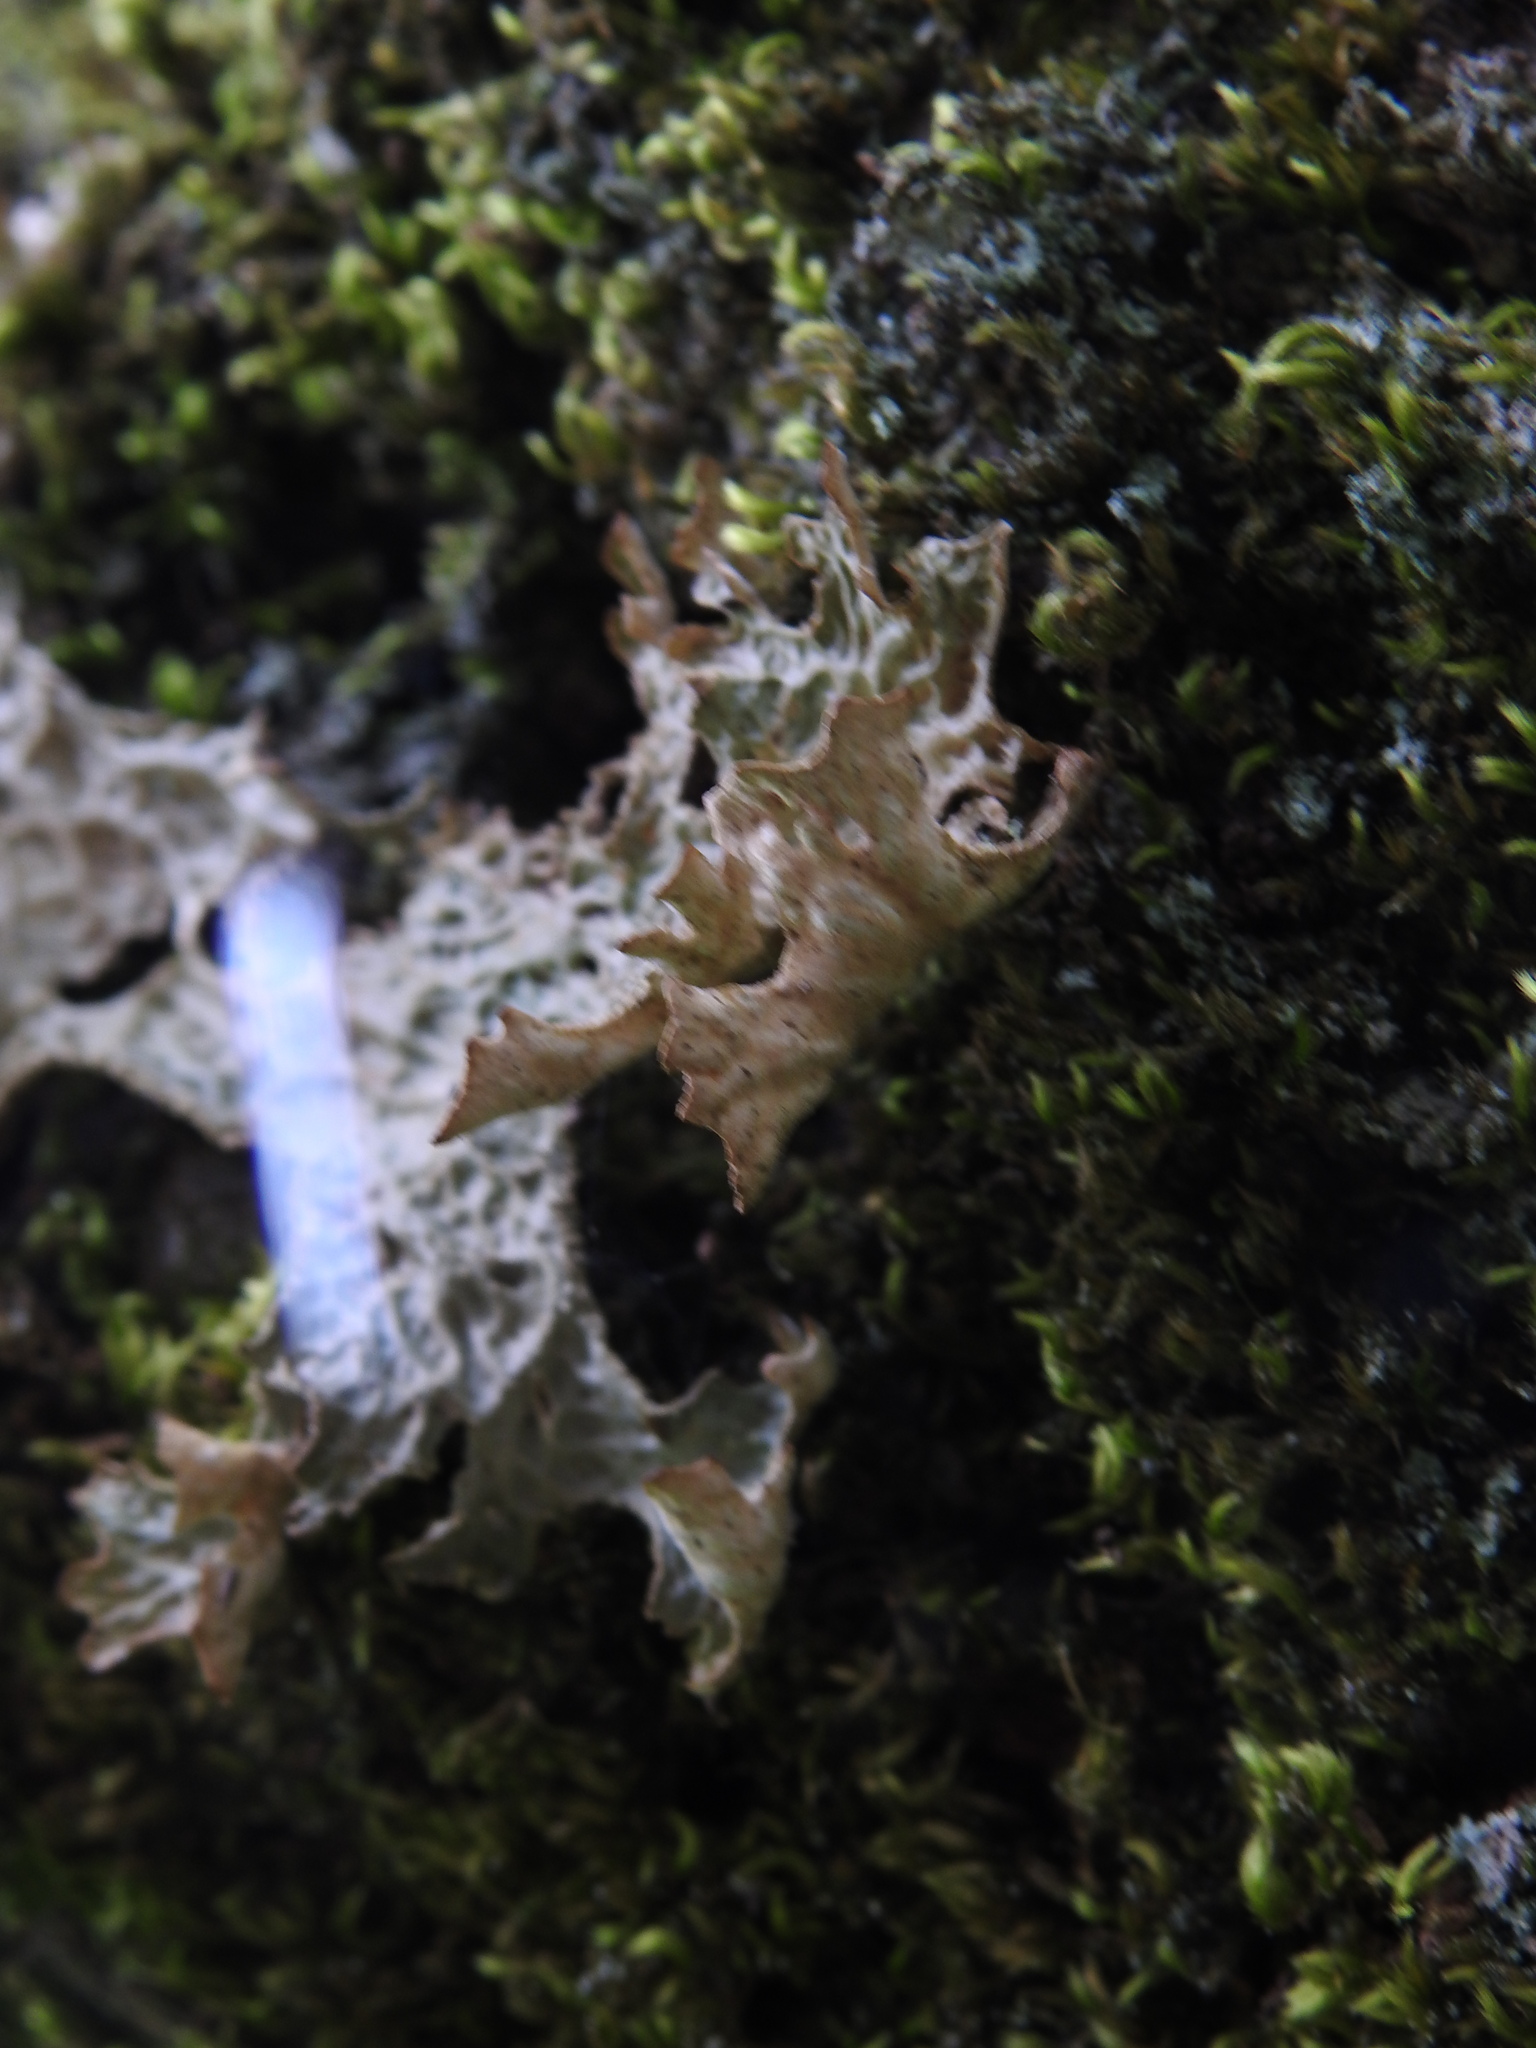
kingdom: Fungi
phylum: Ascomycota
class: Lecanoromycetes
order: Peltigerales
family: Lobariaceae
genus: Lobaria
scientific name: Lobaria pulmonaria
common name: Lungwort
